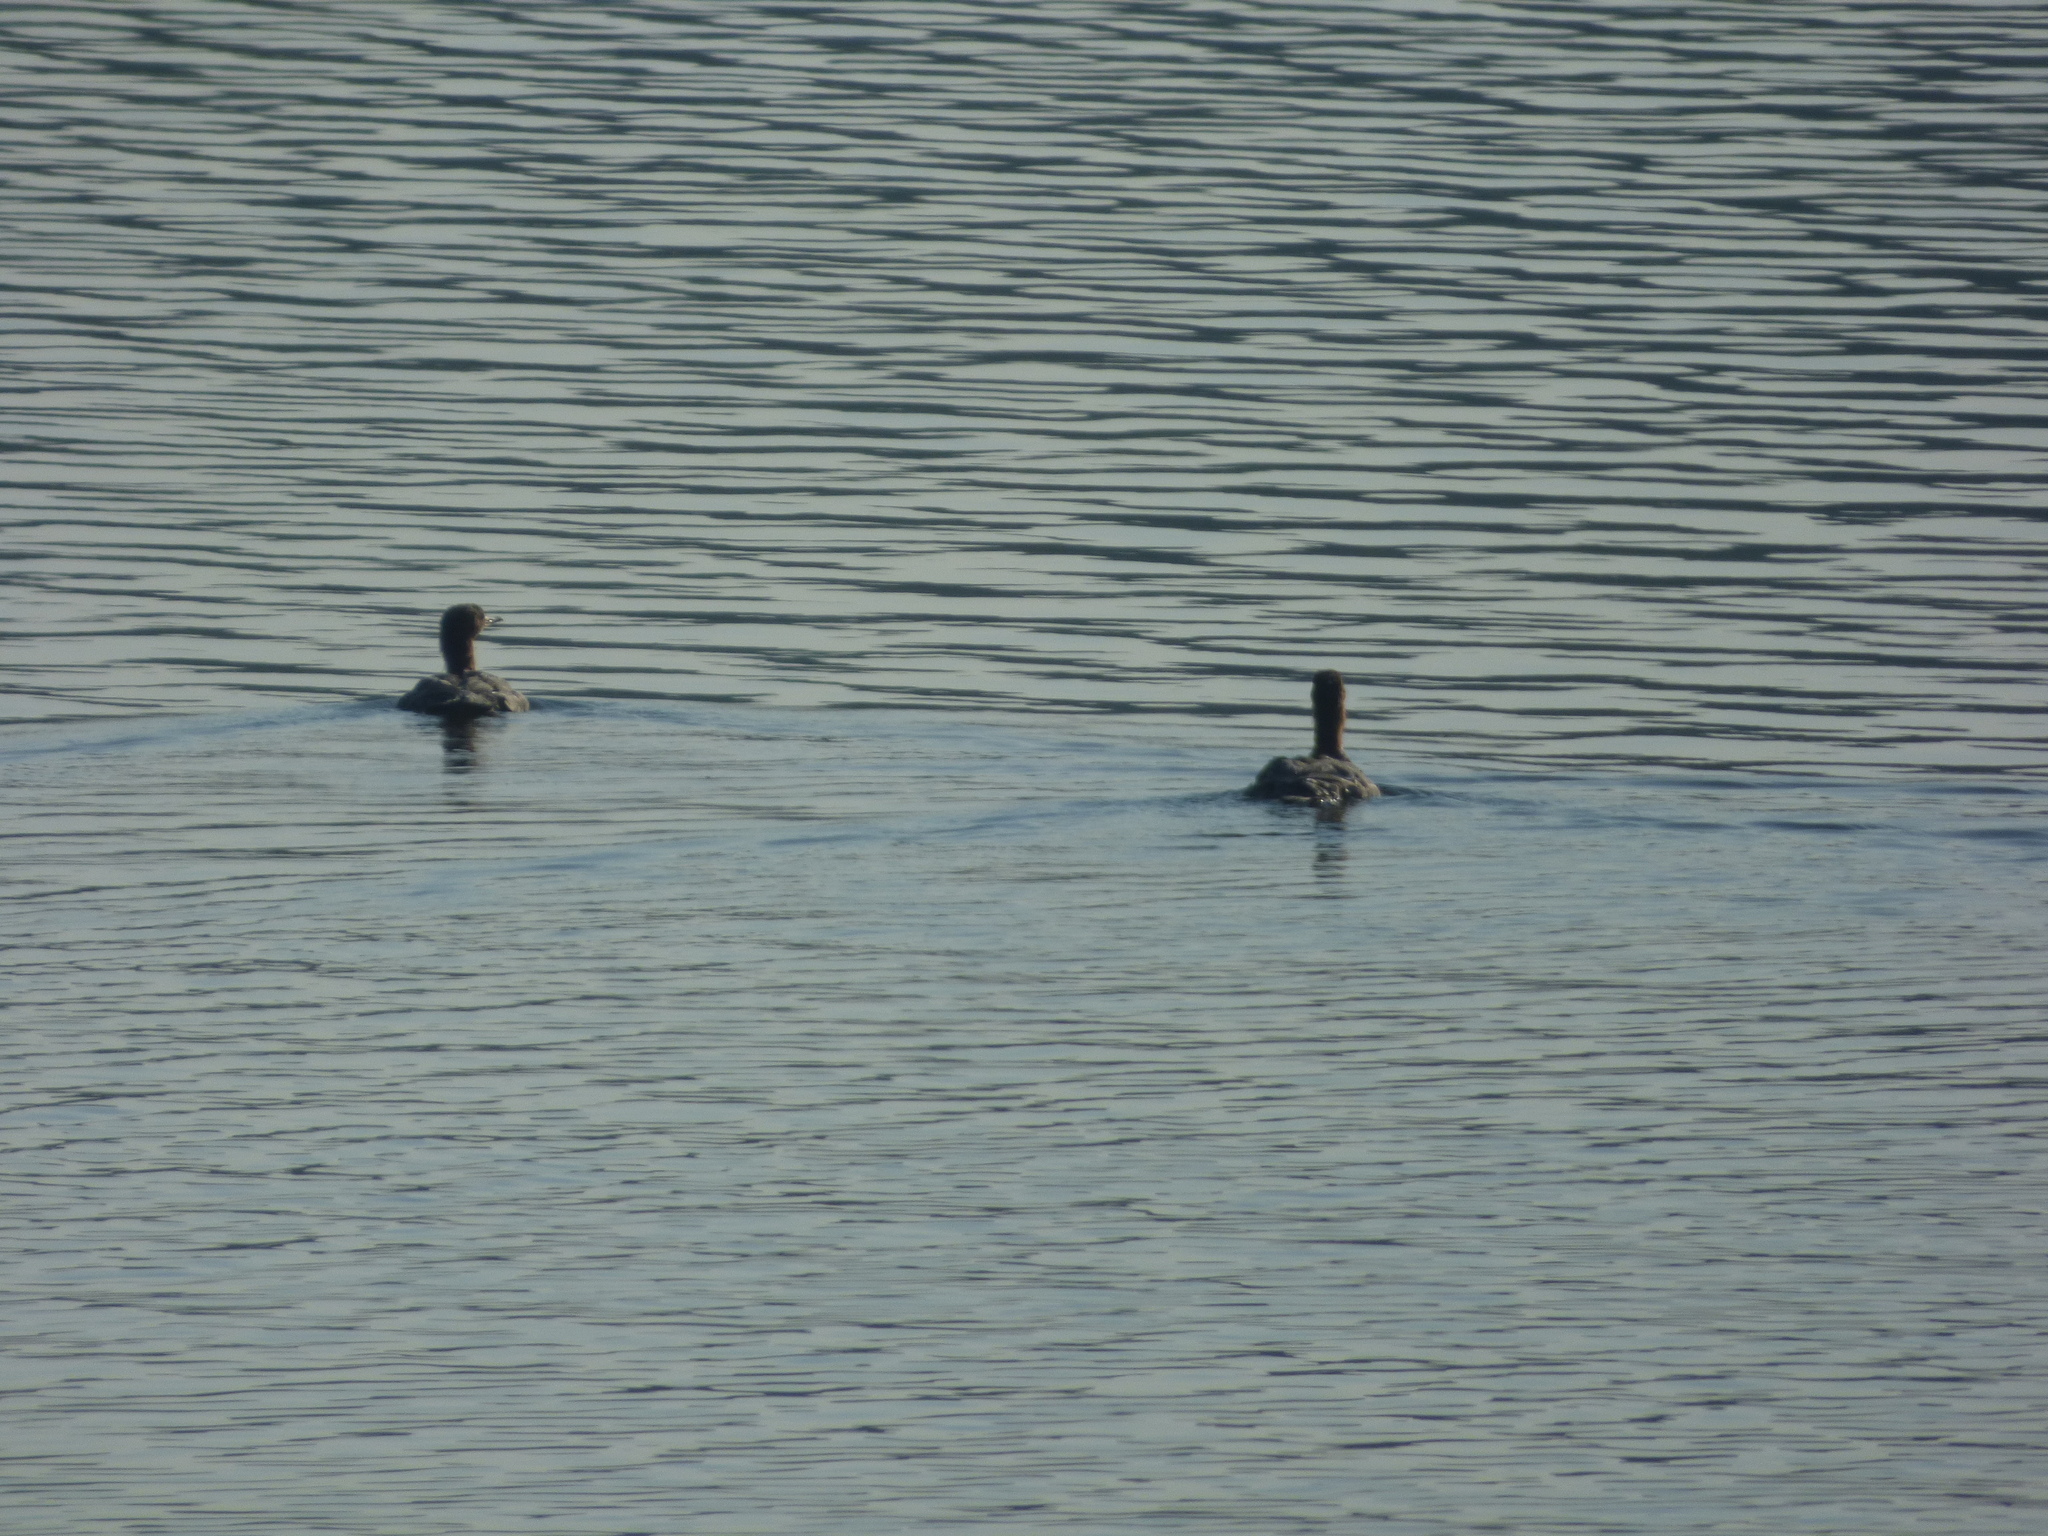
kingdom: Animalia
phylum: Chordata
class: Aves
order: Anseriformes
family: Anatidae
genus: Mergus
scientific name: Mergus merganser
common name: Common merganser
